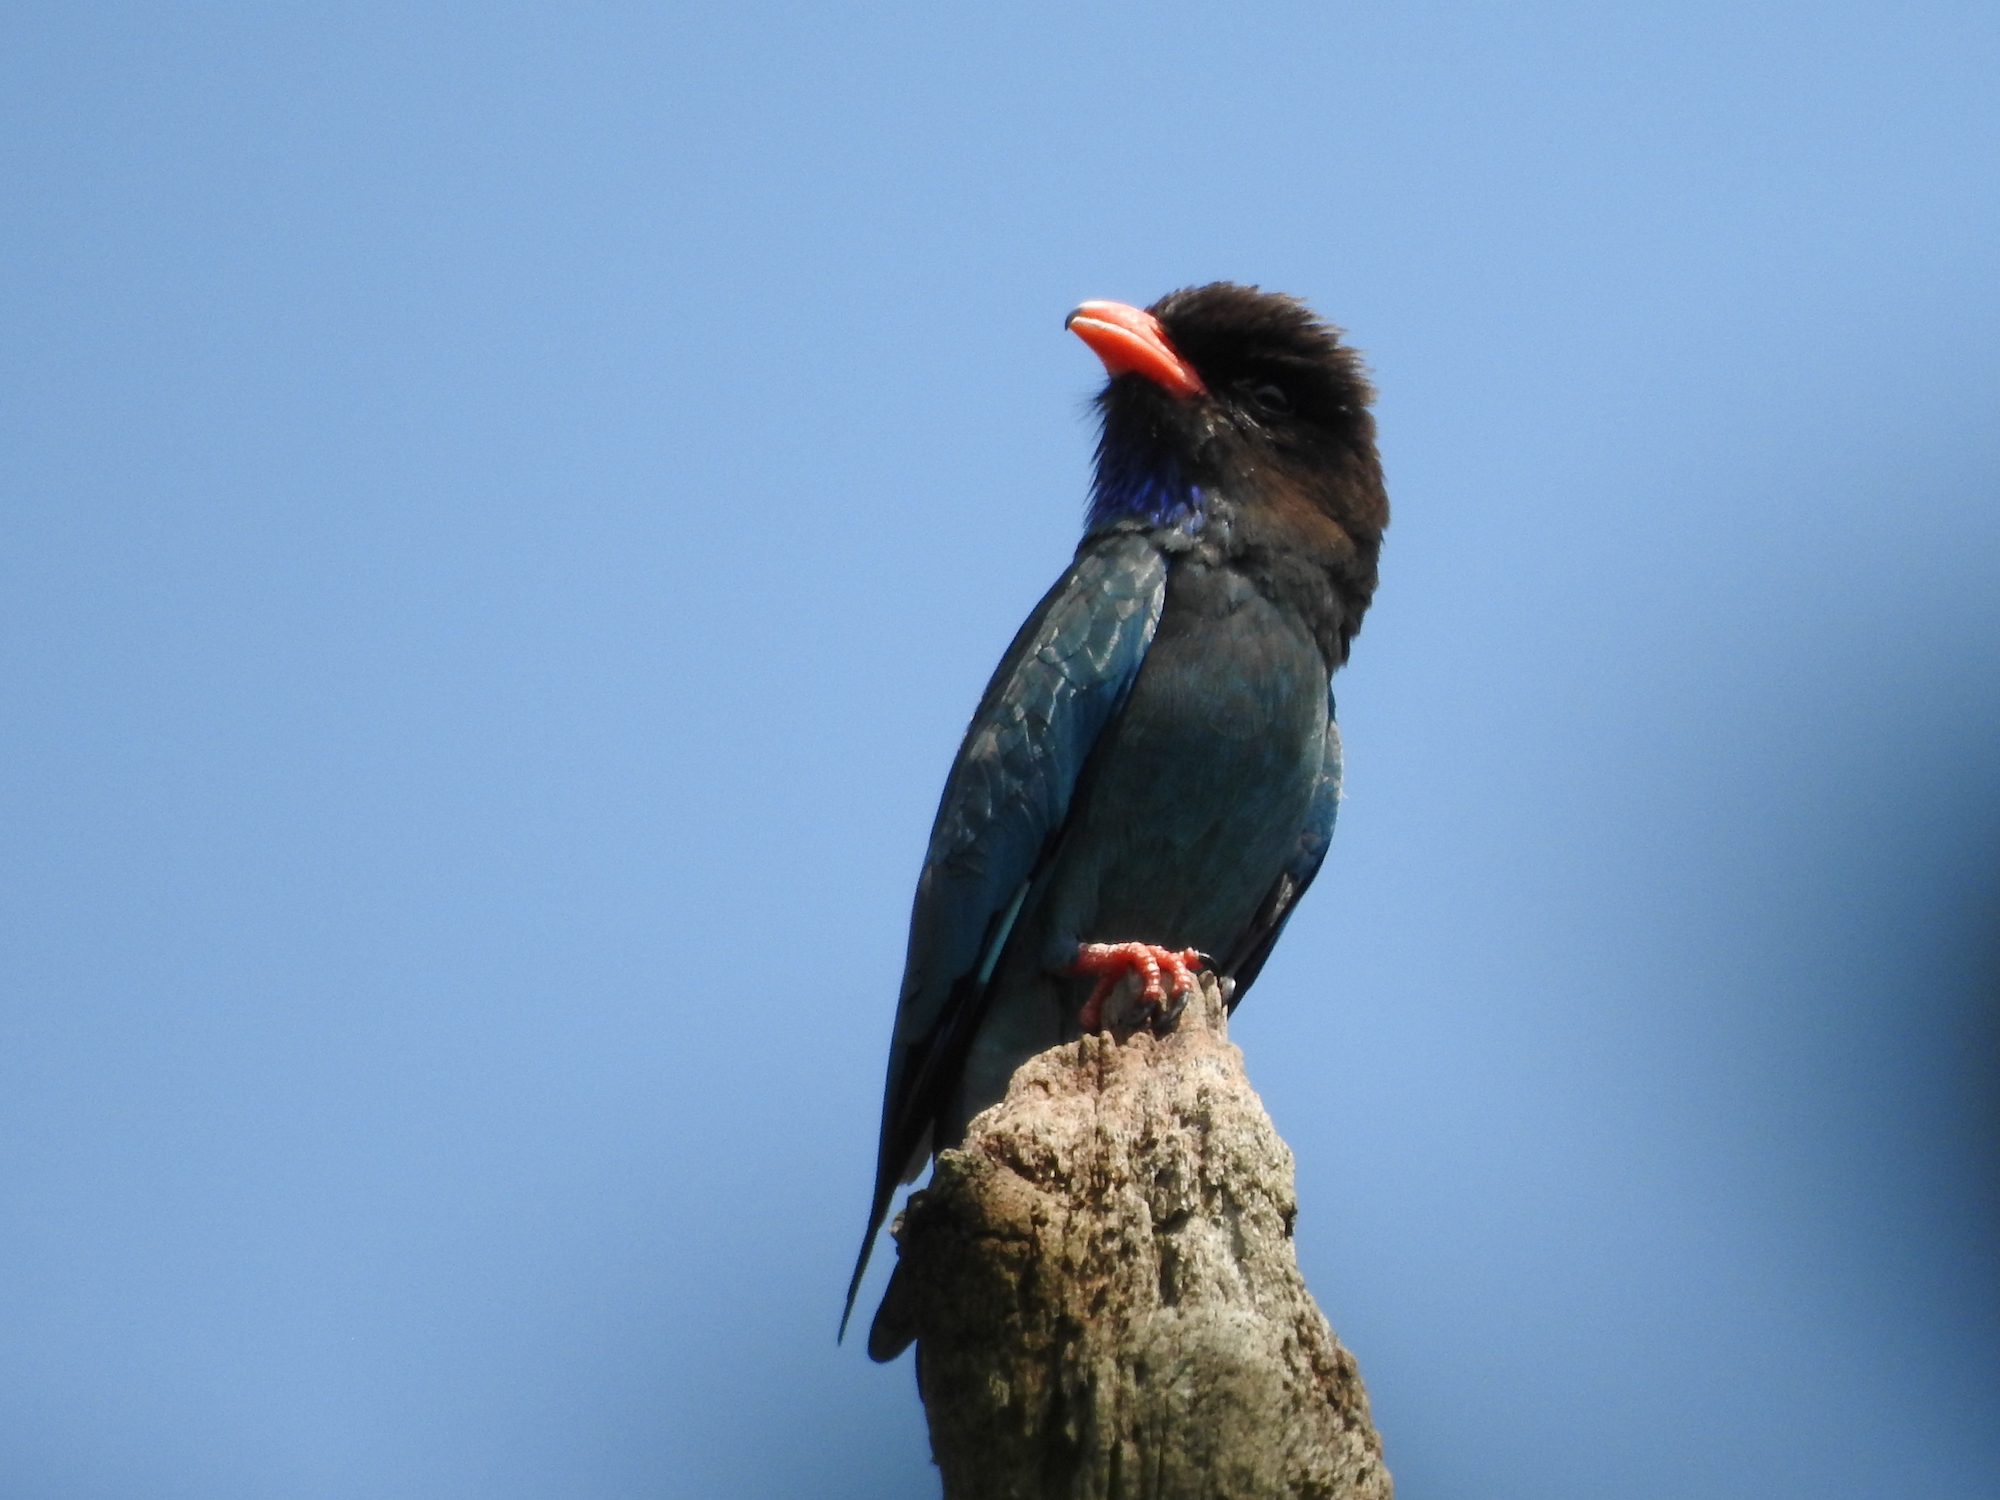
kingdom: Animalia
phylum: Chordata
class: Aves
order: Coraciiformes
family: Coraciidae
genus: Eurystomus
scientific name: Eurystomus orientalis
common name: Oriental dollarbird
